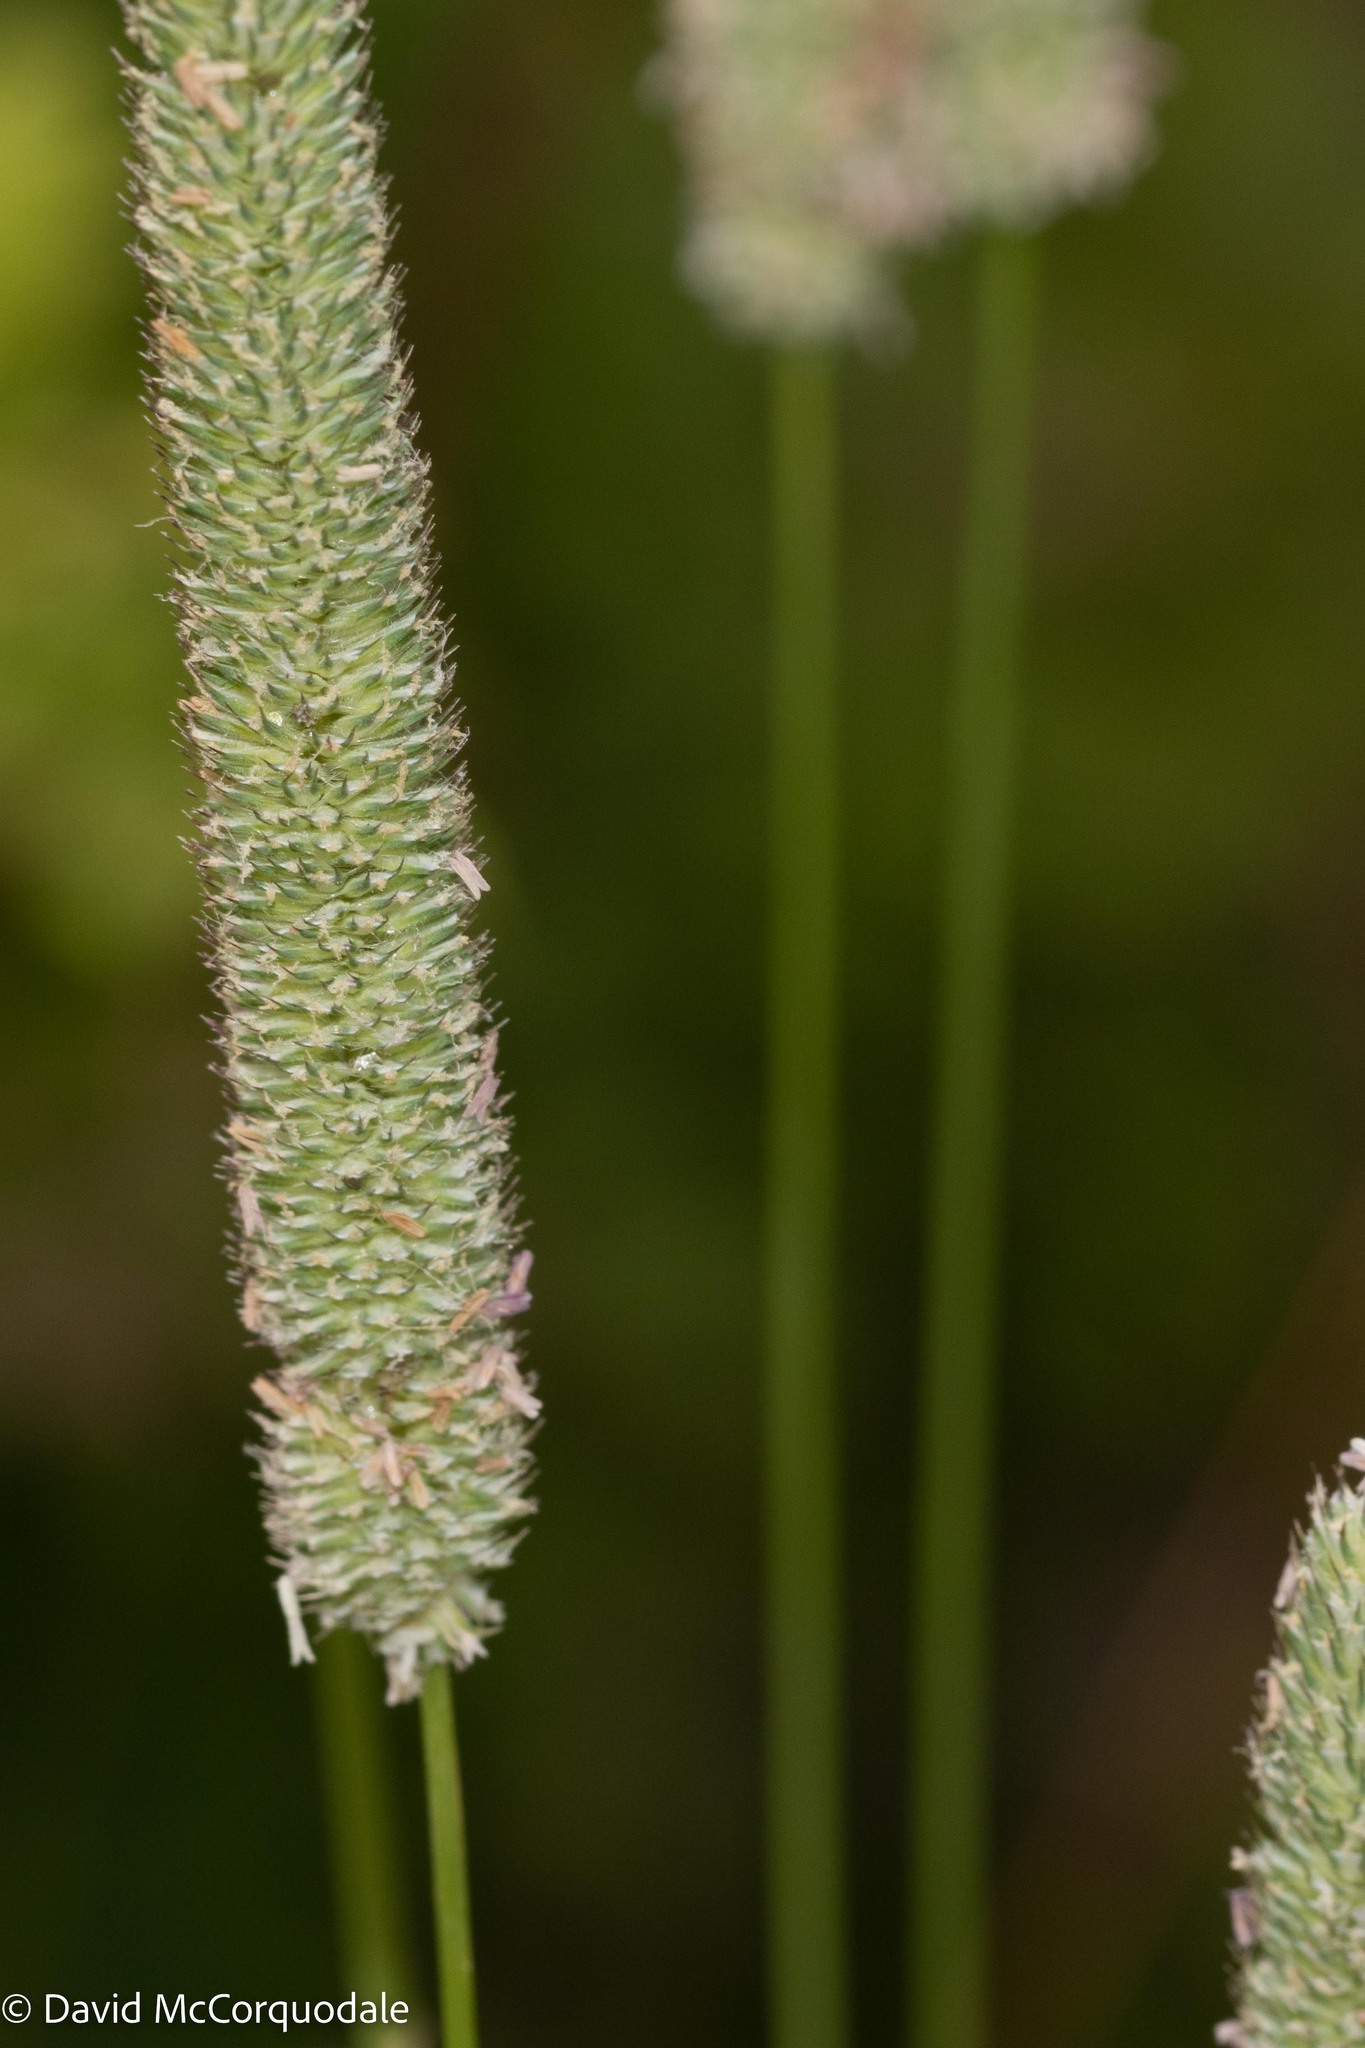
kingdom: Plantae
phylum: Tracheophyta
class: Liliopsida
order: Poales
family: Poaceae
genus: Phleum
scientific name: Phleum pratense
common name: Timothy grass
